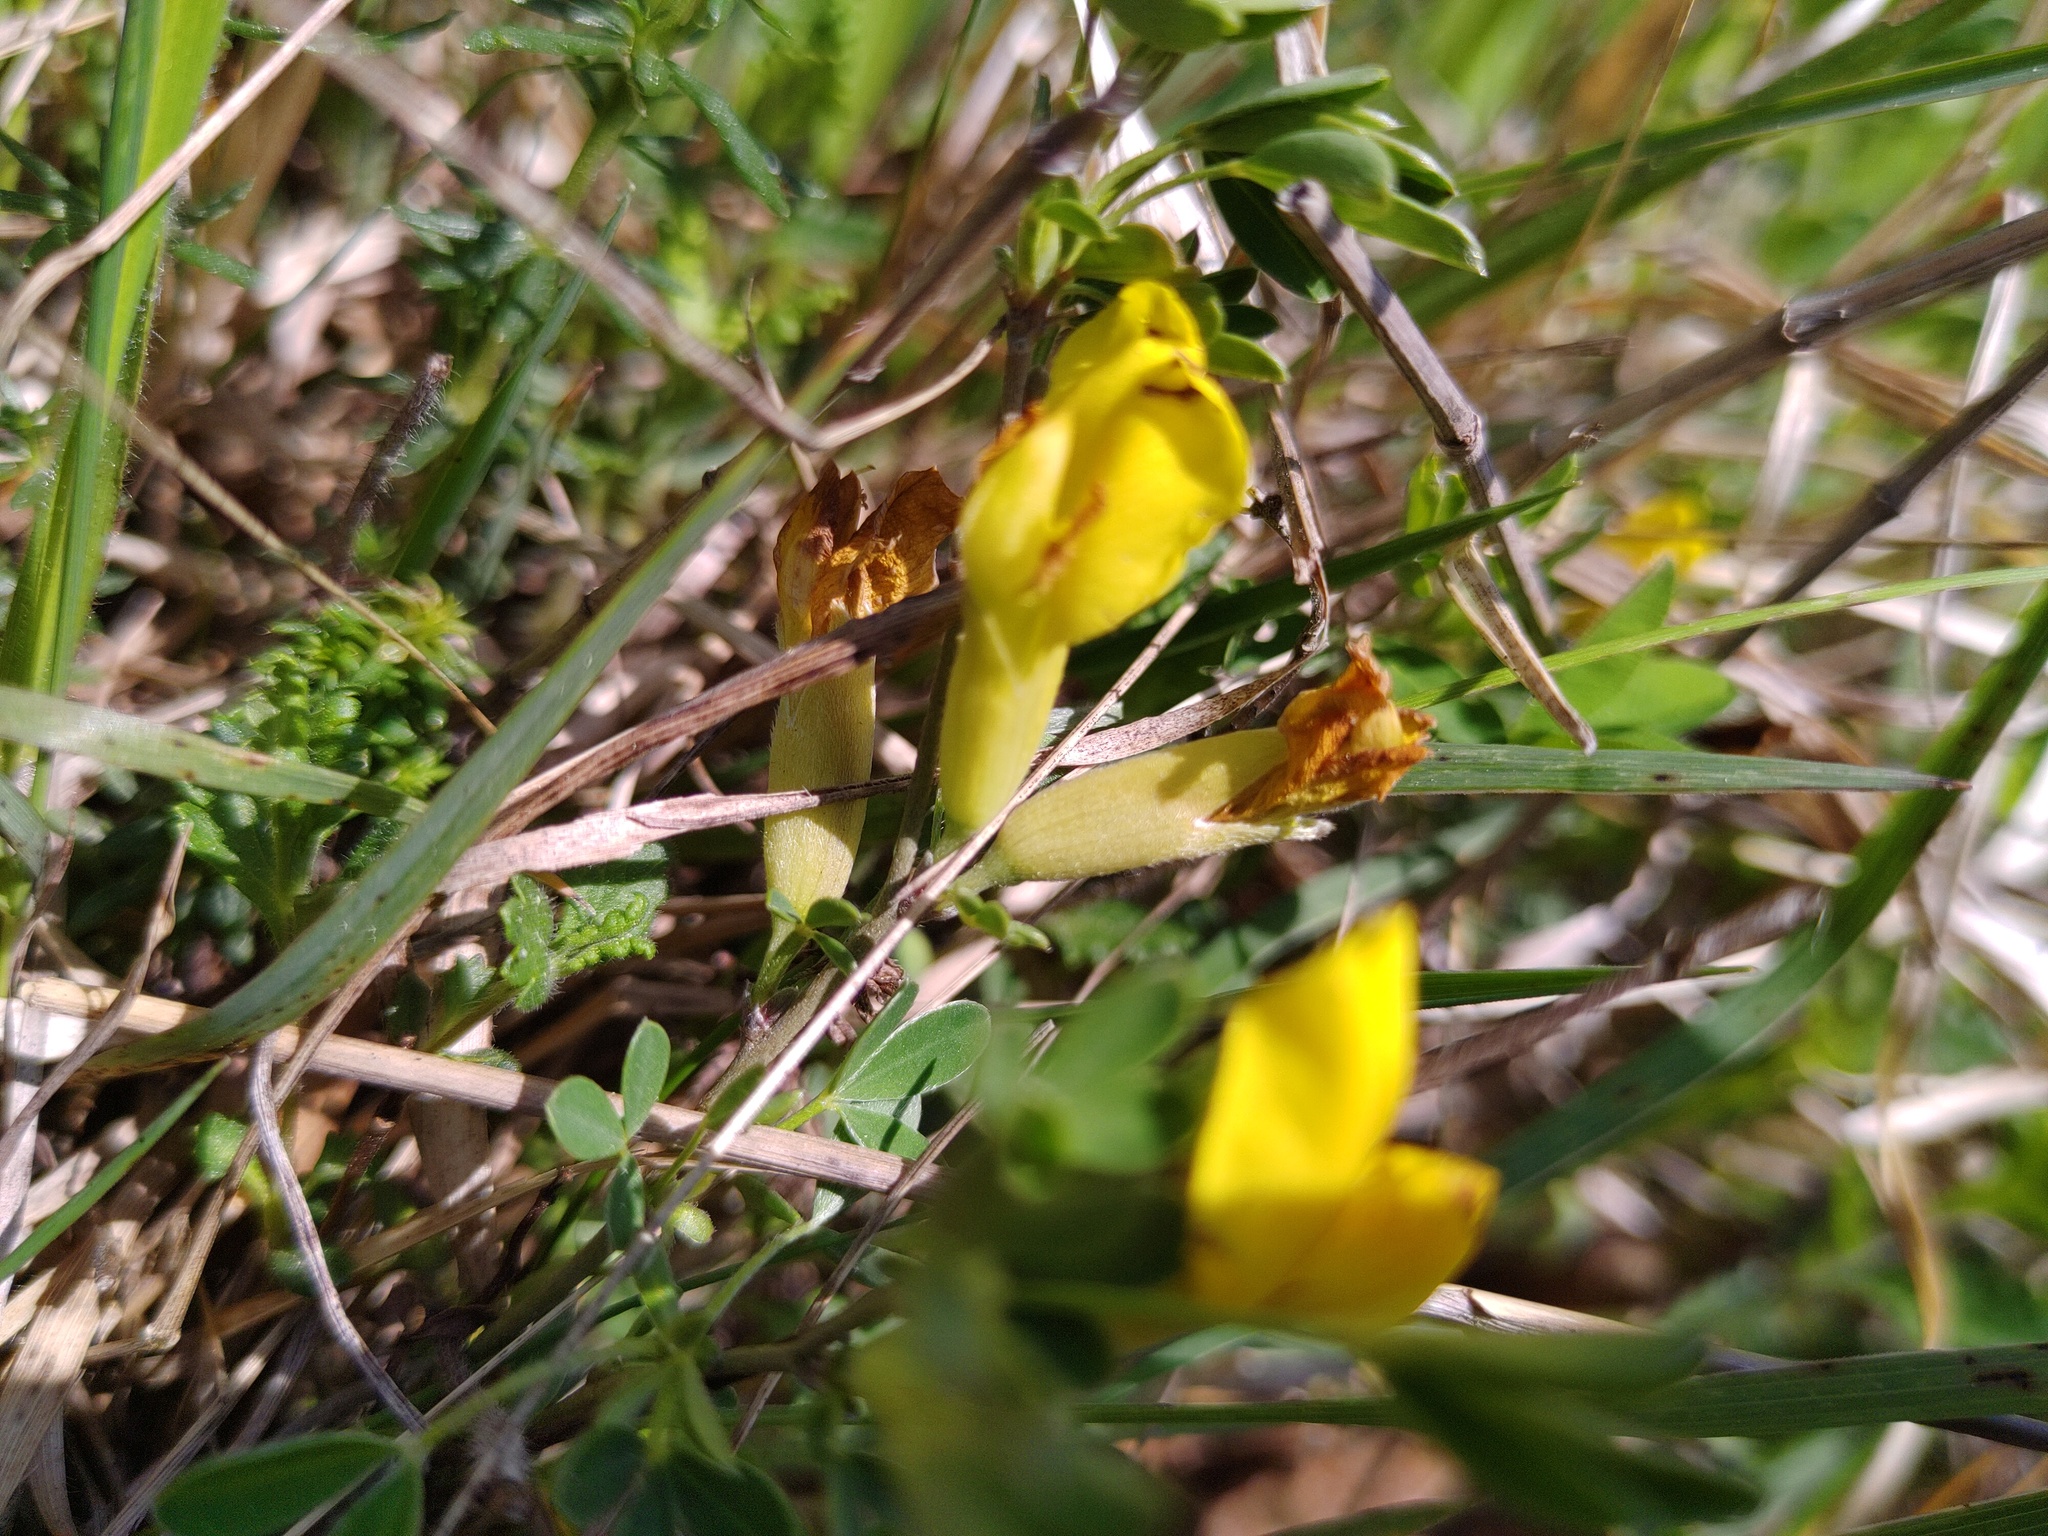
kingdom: Plantae
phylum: Tracheophyta
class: Magnoliopsida
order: Fabales
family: Fabaceae
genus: Chamaecytisus
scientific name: Chamaecytisus ratisbonensis
